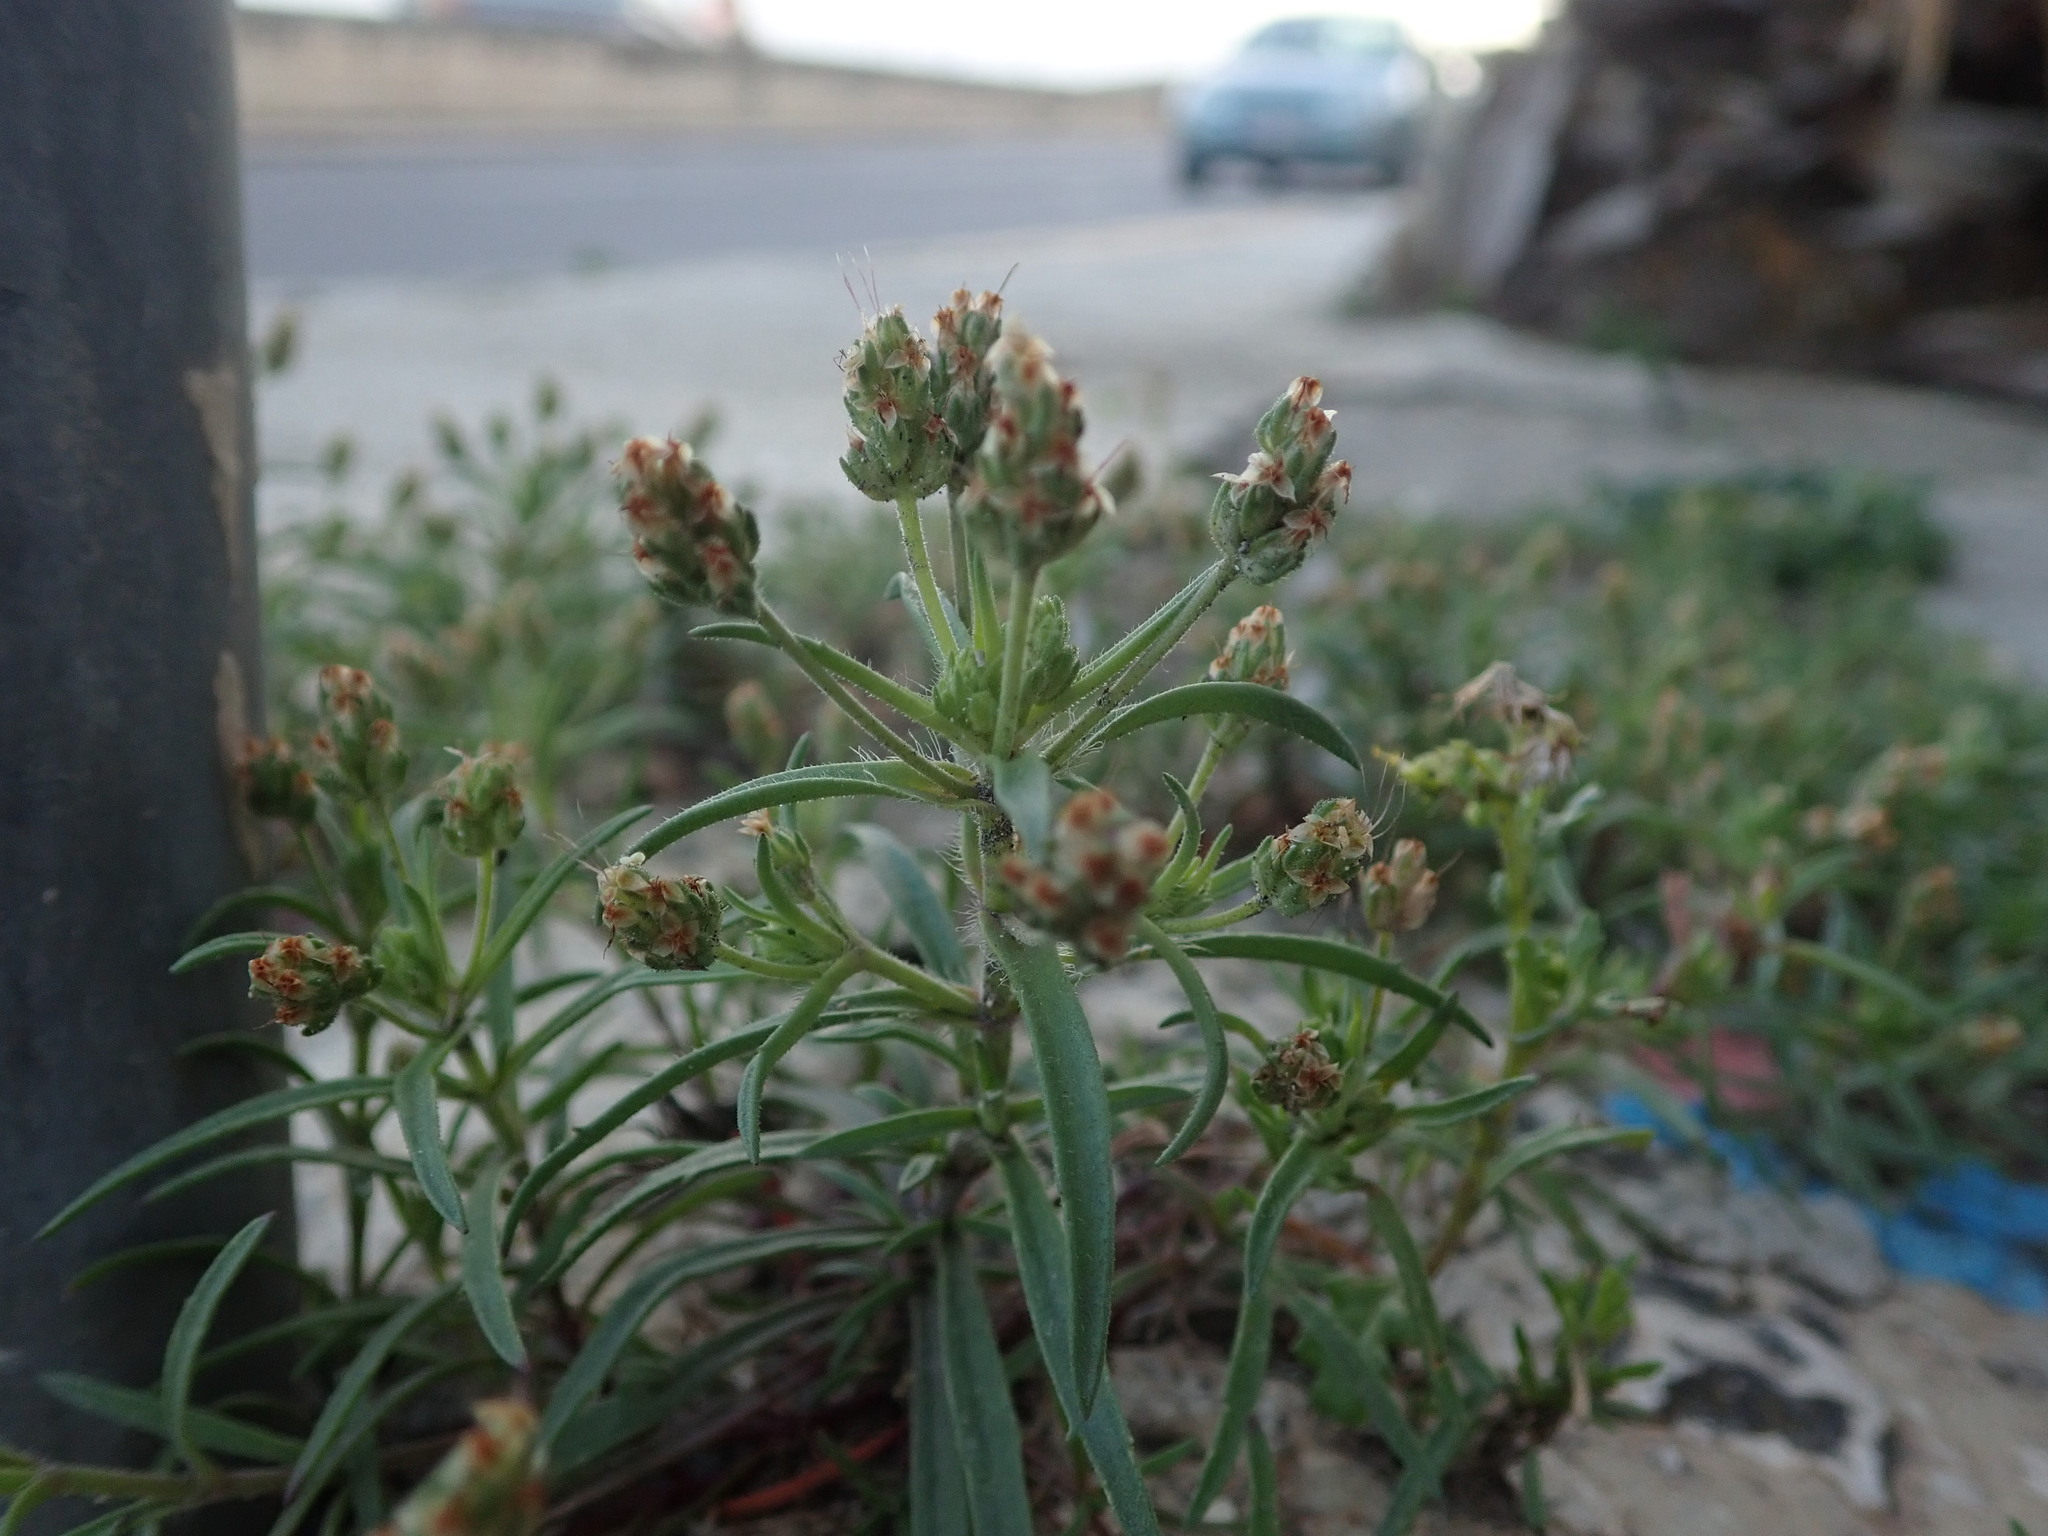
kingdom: Plantae
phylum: Tracheophyta
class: Magnoliopsida
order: Lamiales
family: Plantaginaceae
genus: Plantago
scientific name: Plantago afra
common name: Glandular plantain
